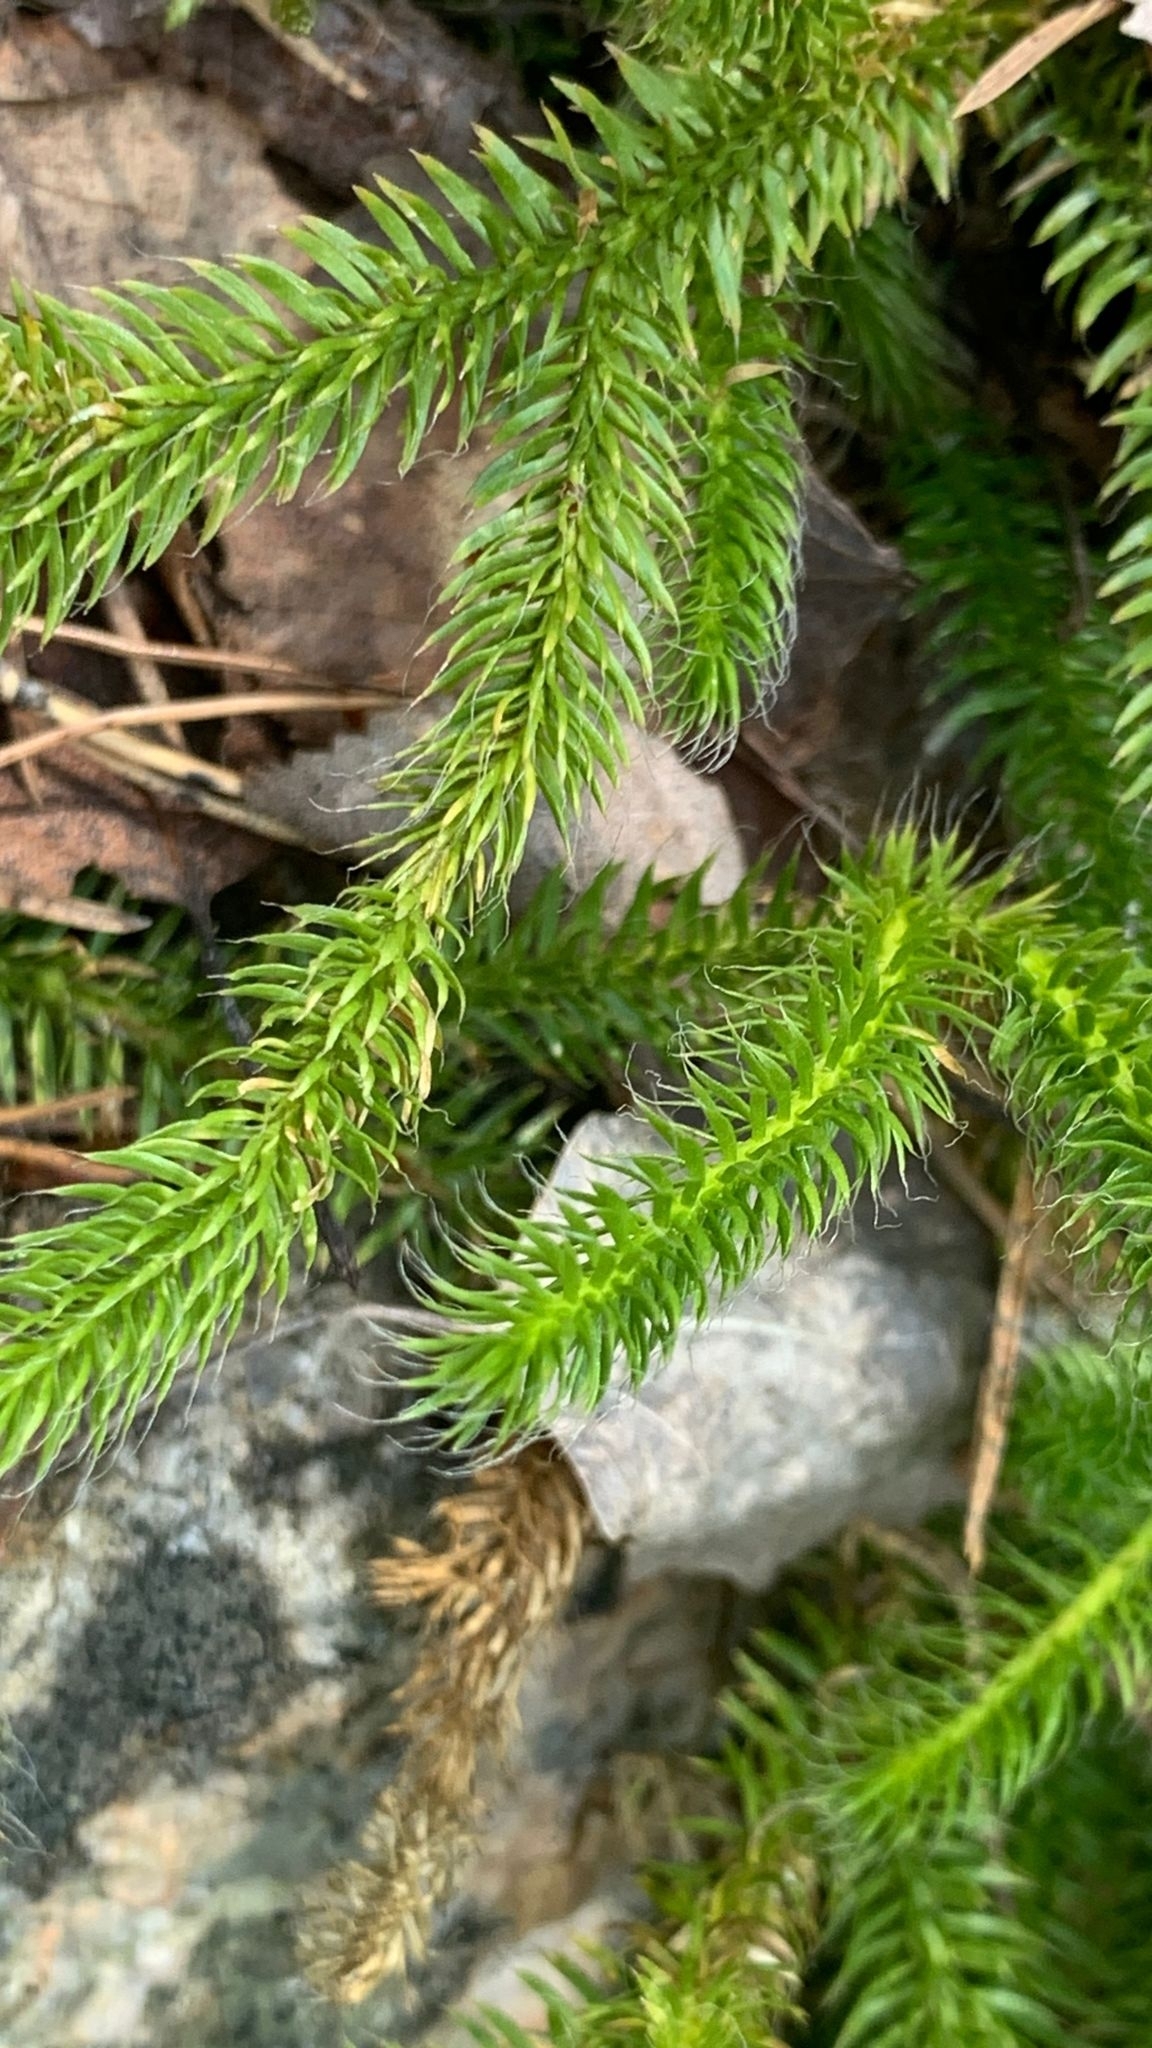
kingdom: Plantae
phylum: Tracheophyta
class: Lycopodiopsida
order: Lycopodiales
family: Lycopodiaceae
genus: Lycopodium
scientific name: Lycopodium clavatum
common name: Stag's-horn clubmoss
